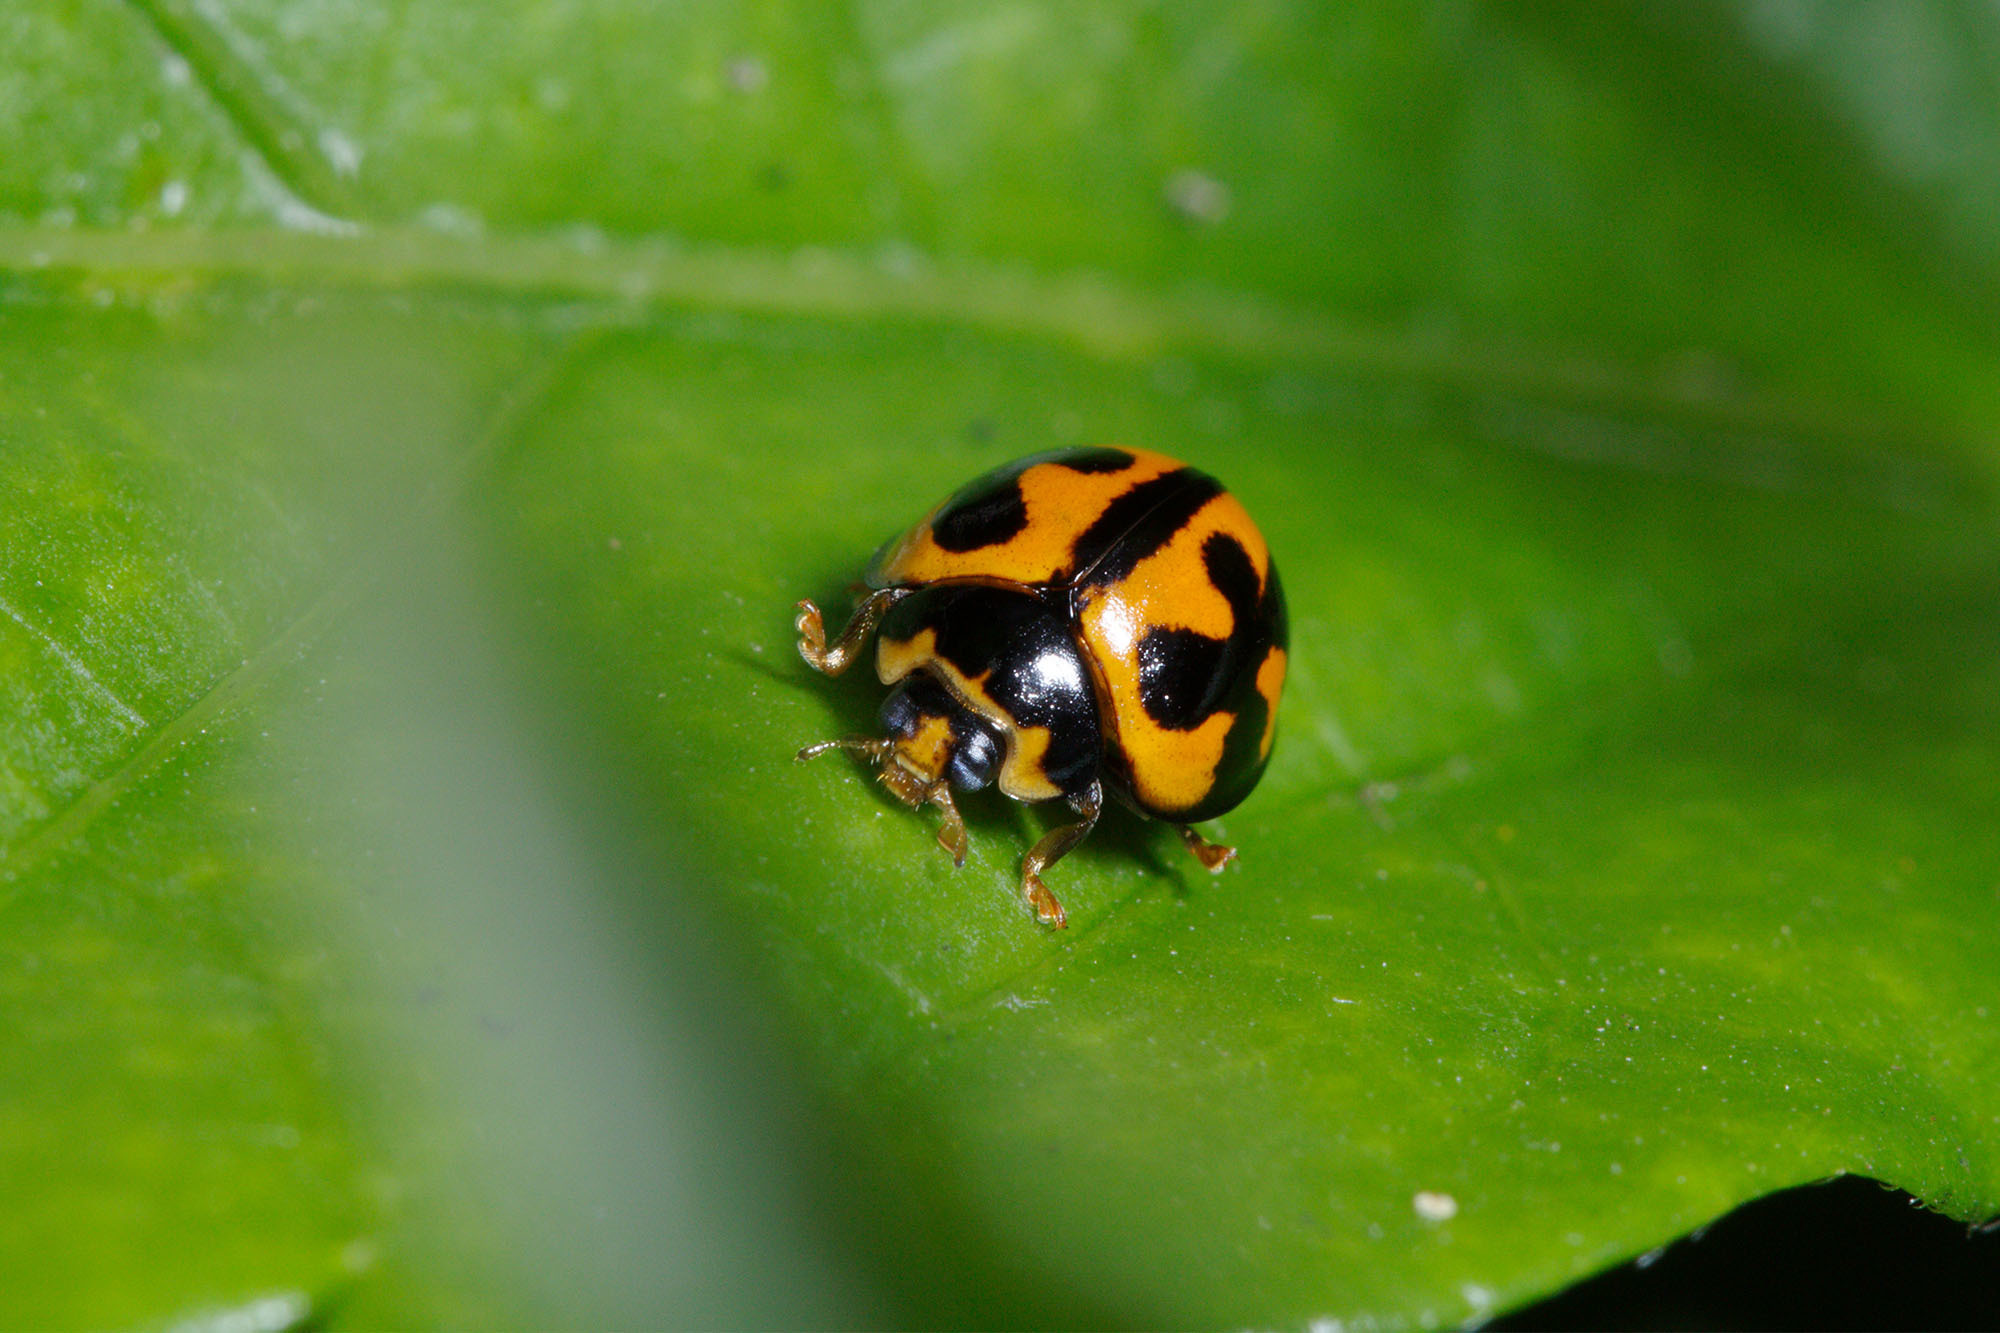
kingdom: Animalia
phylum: Arthropoda
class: Insecta
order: Coleoptera
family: Coccinellidae
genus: Coelophora
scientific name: Coelophora inaequalis
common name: Common australian lady beetle
